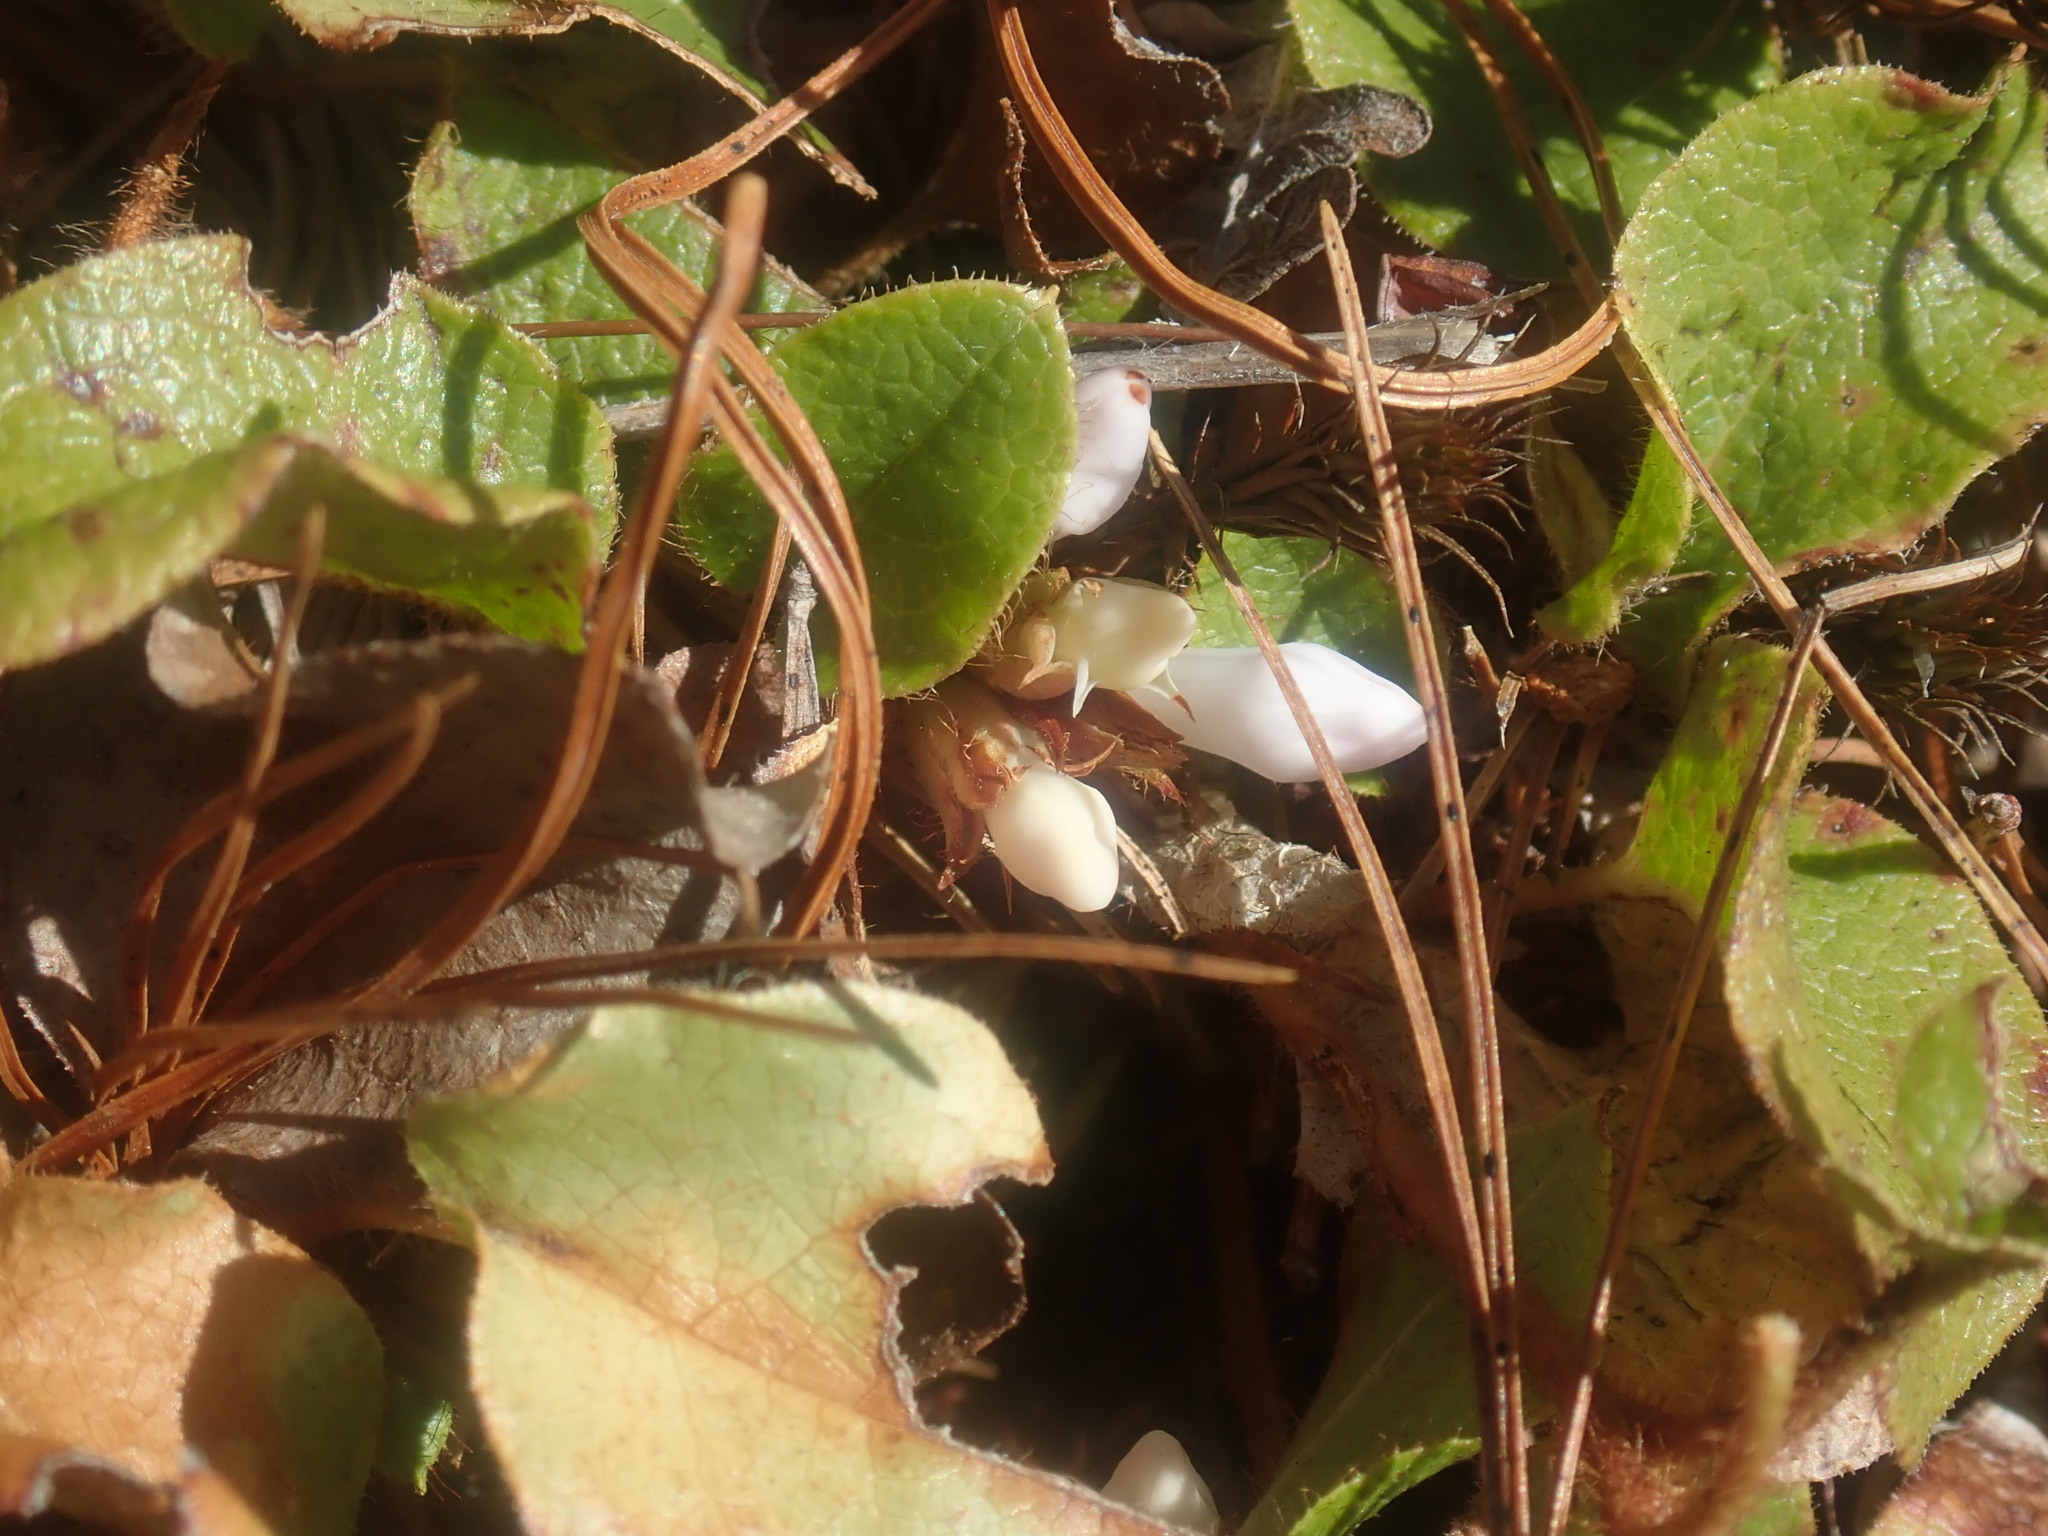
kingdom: Plantae
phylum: Tracheophyta
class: Magnoliopsida
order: Ericales
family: Ericaceae
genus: Epigaea
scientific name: Epigaea repens
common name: Gravelroot
